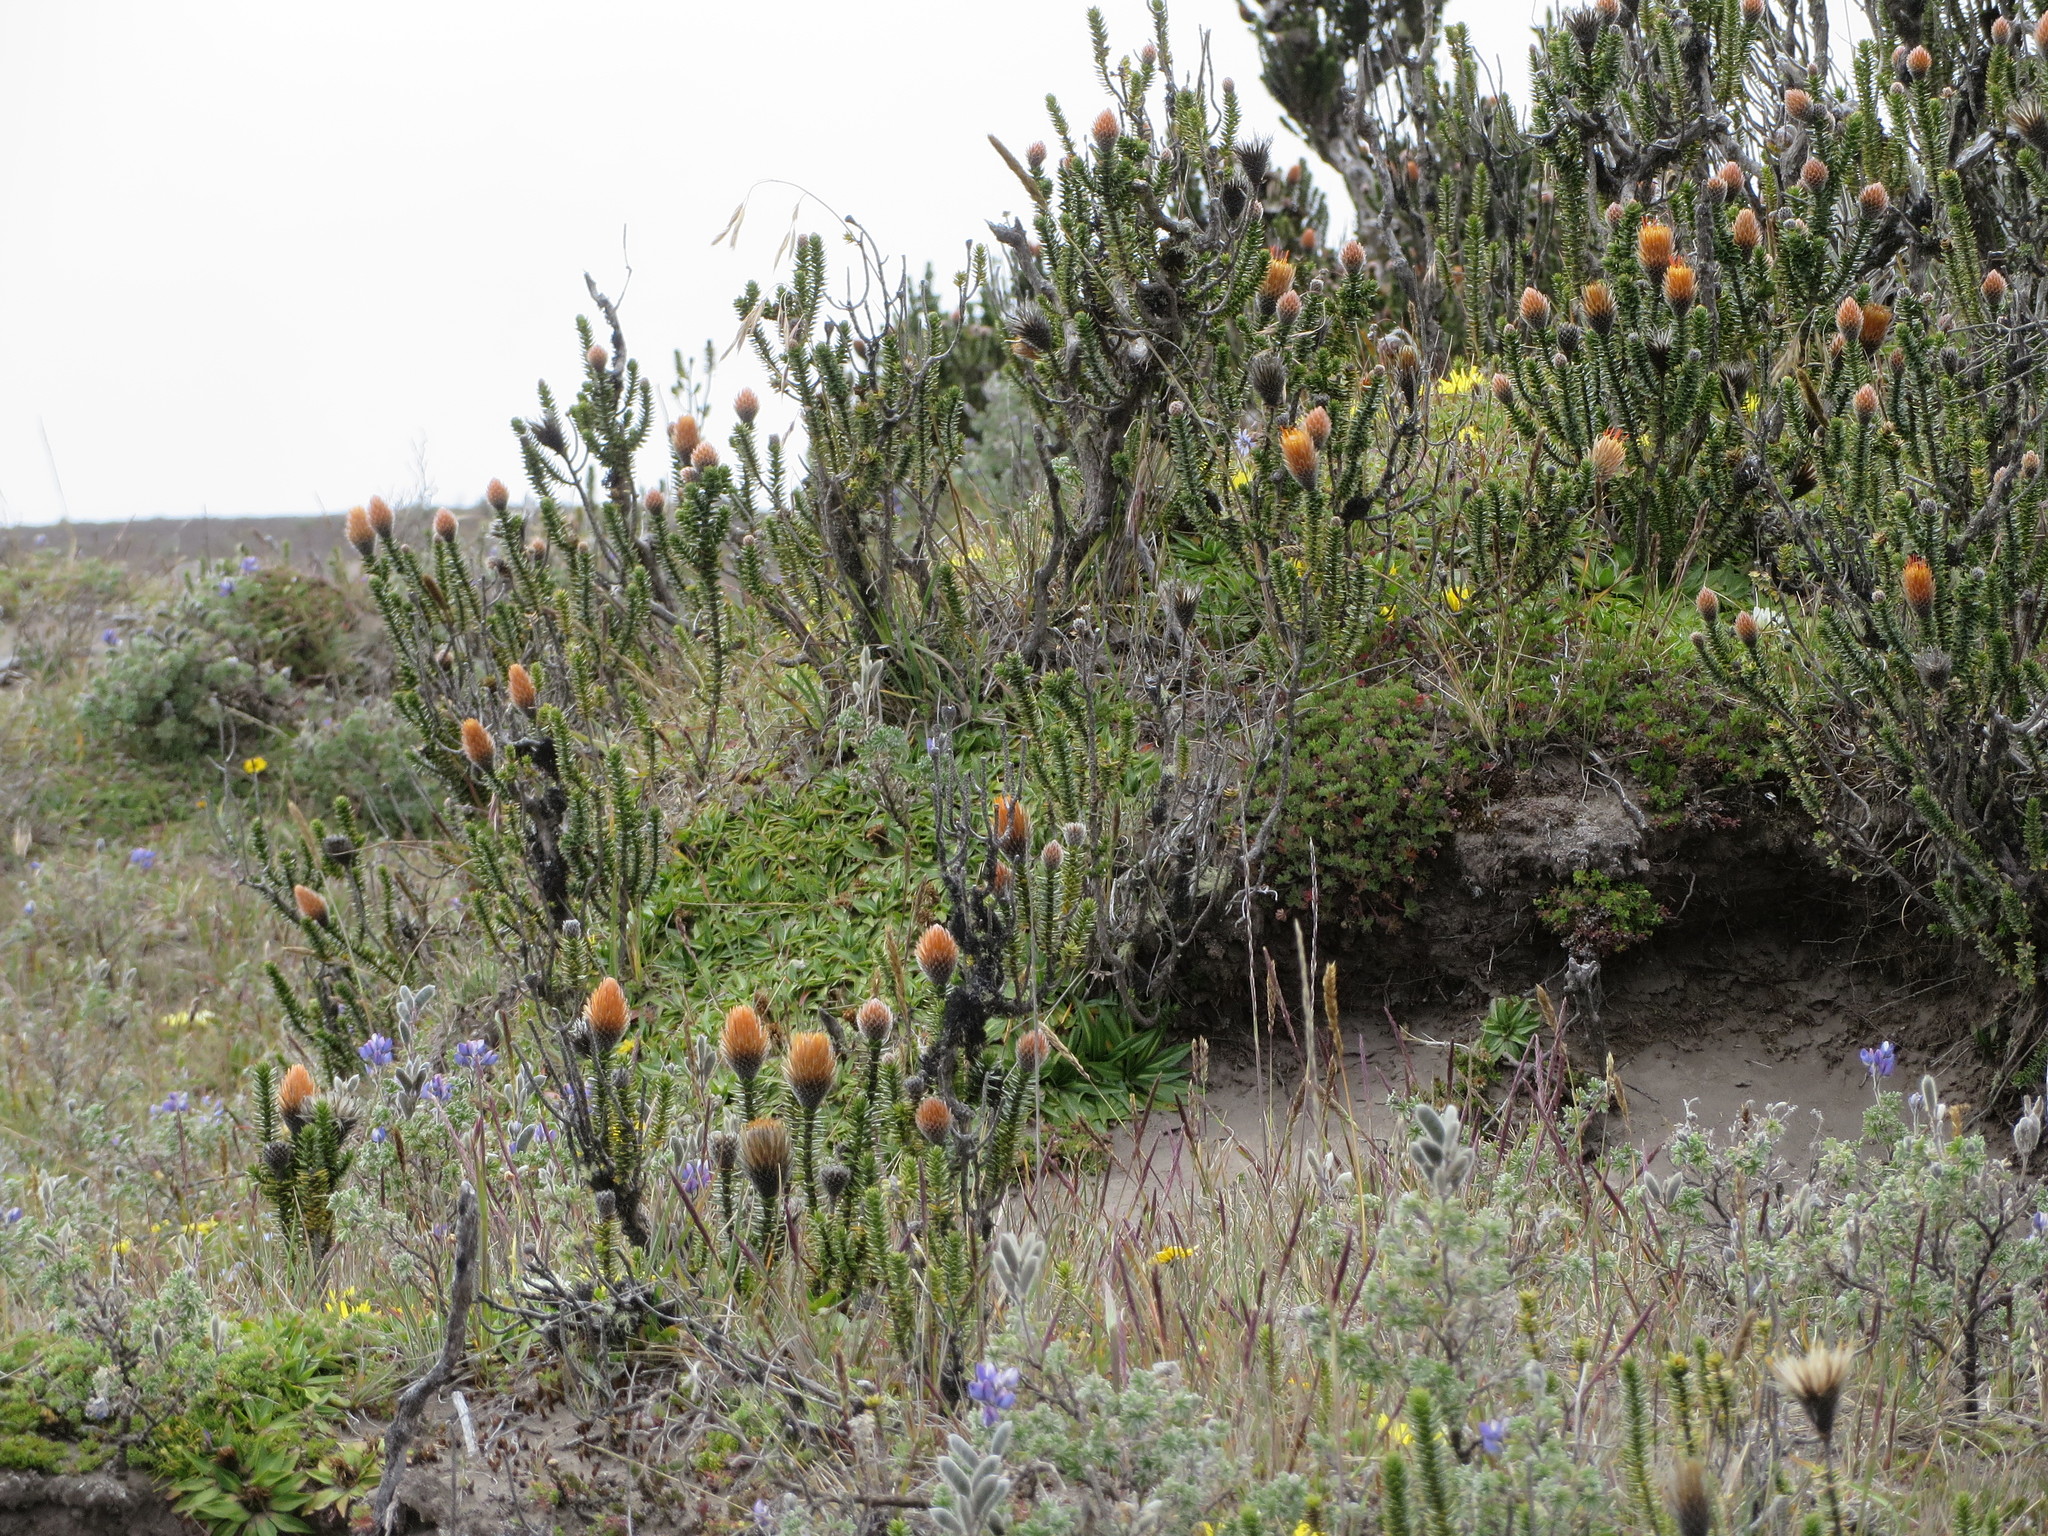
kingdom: Plantae
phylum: Tracheophyta
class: Magnoliopsida
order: Asterales
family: Asteraceae
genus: Chuquiraga
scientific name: Chuquiraga jussieui
